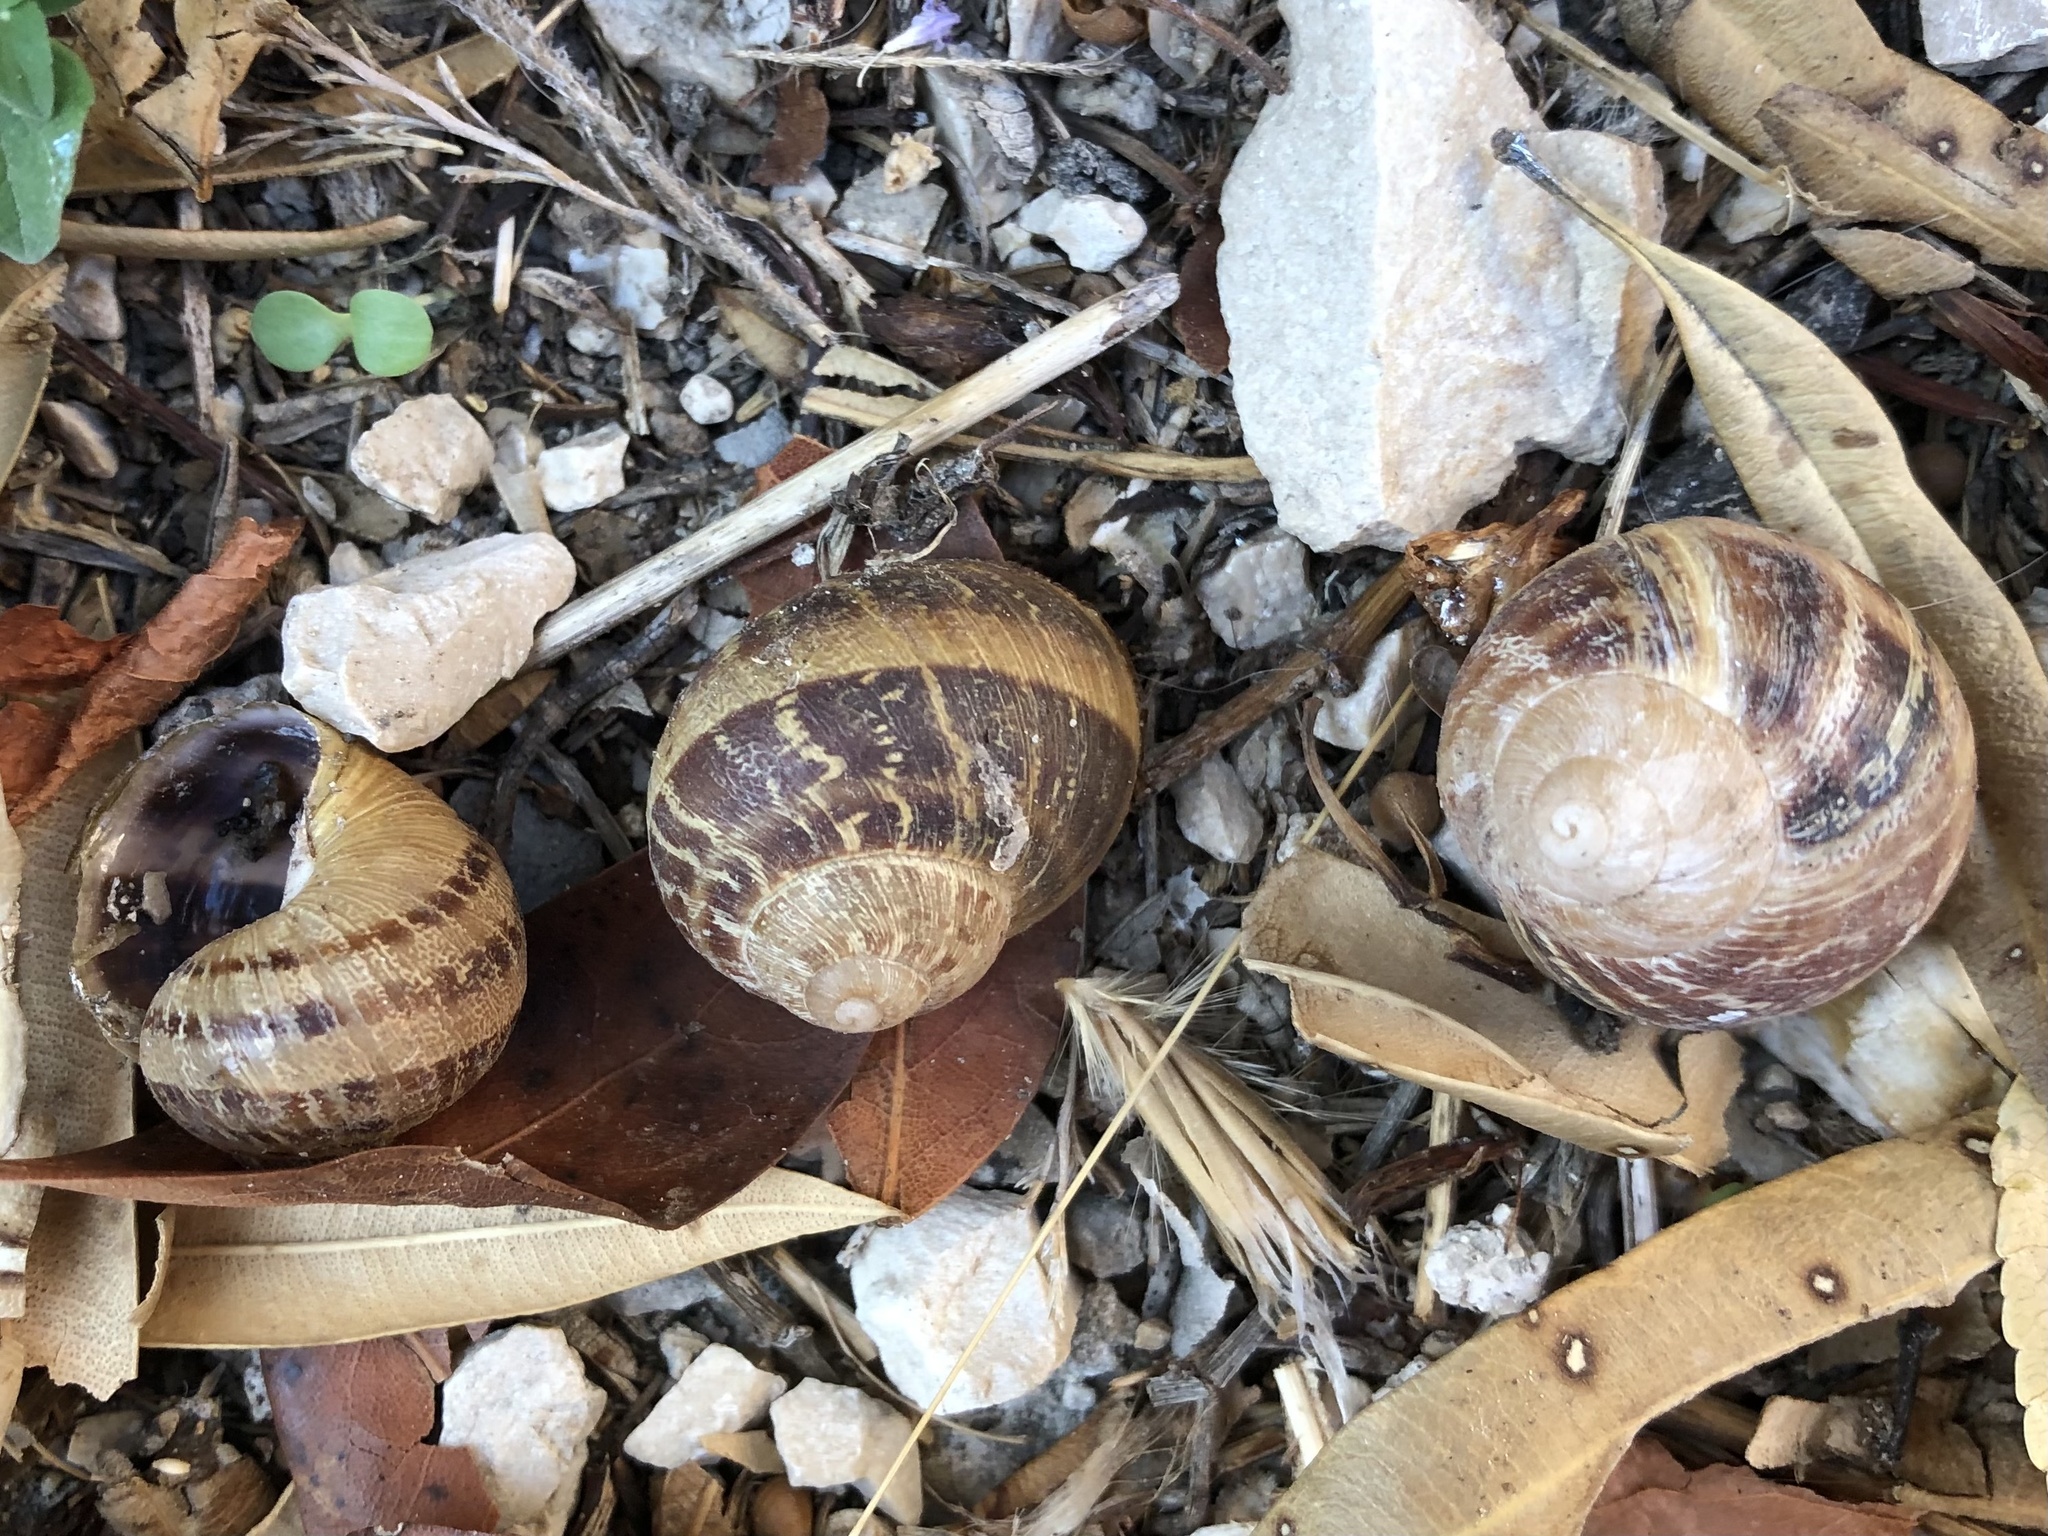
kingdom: Animalia
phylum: Mollusca
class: Gastropoda
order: Stylommatophora
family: Helicidae
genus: Cornu
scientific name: Cornu aspersum
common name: Brown garden snail
